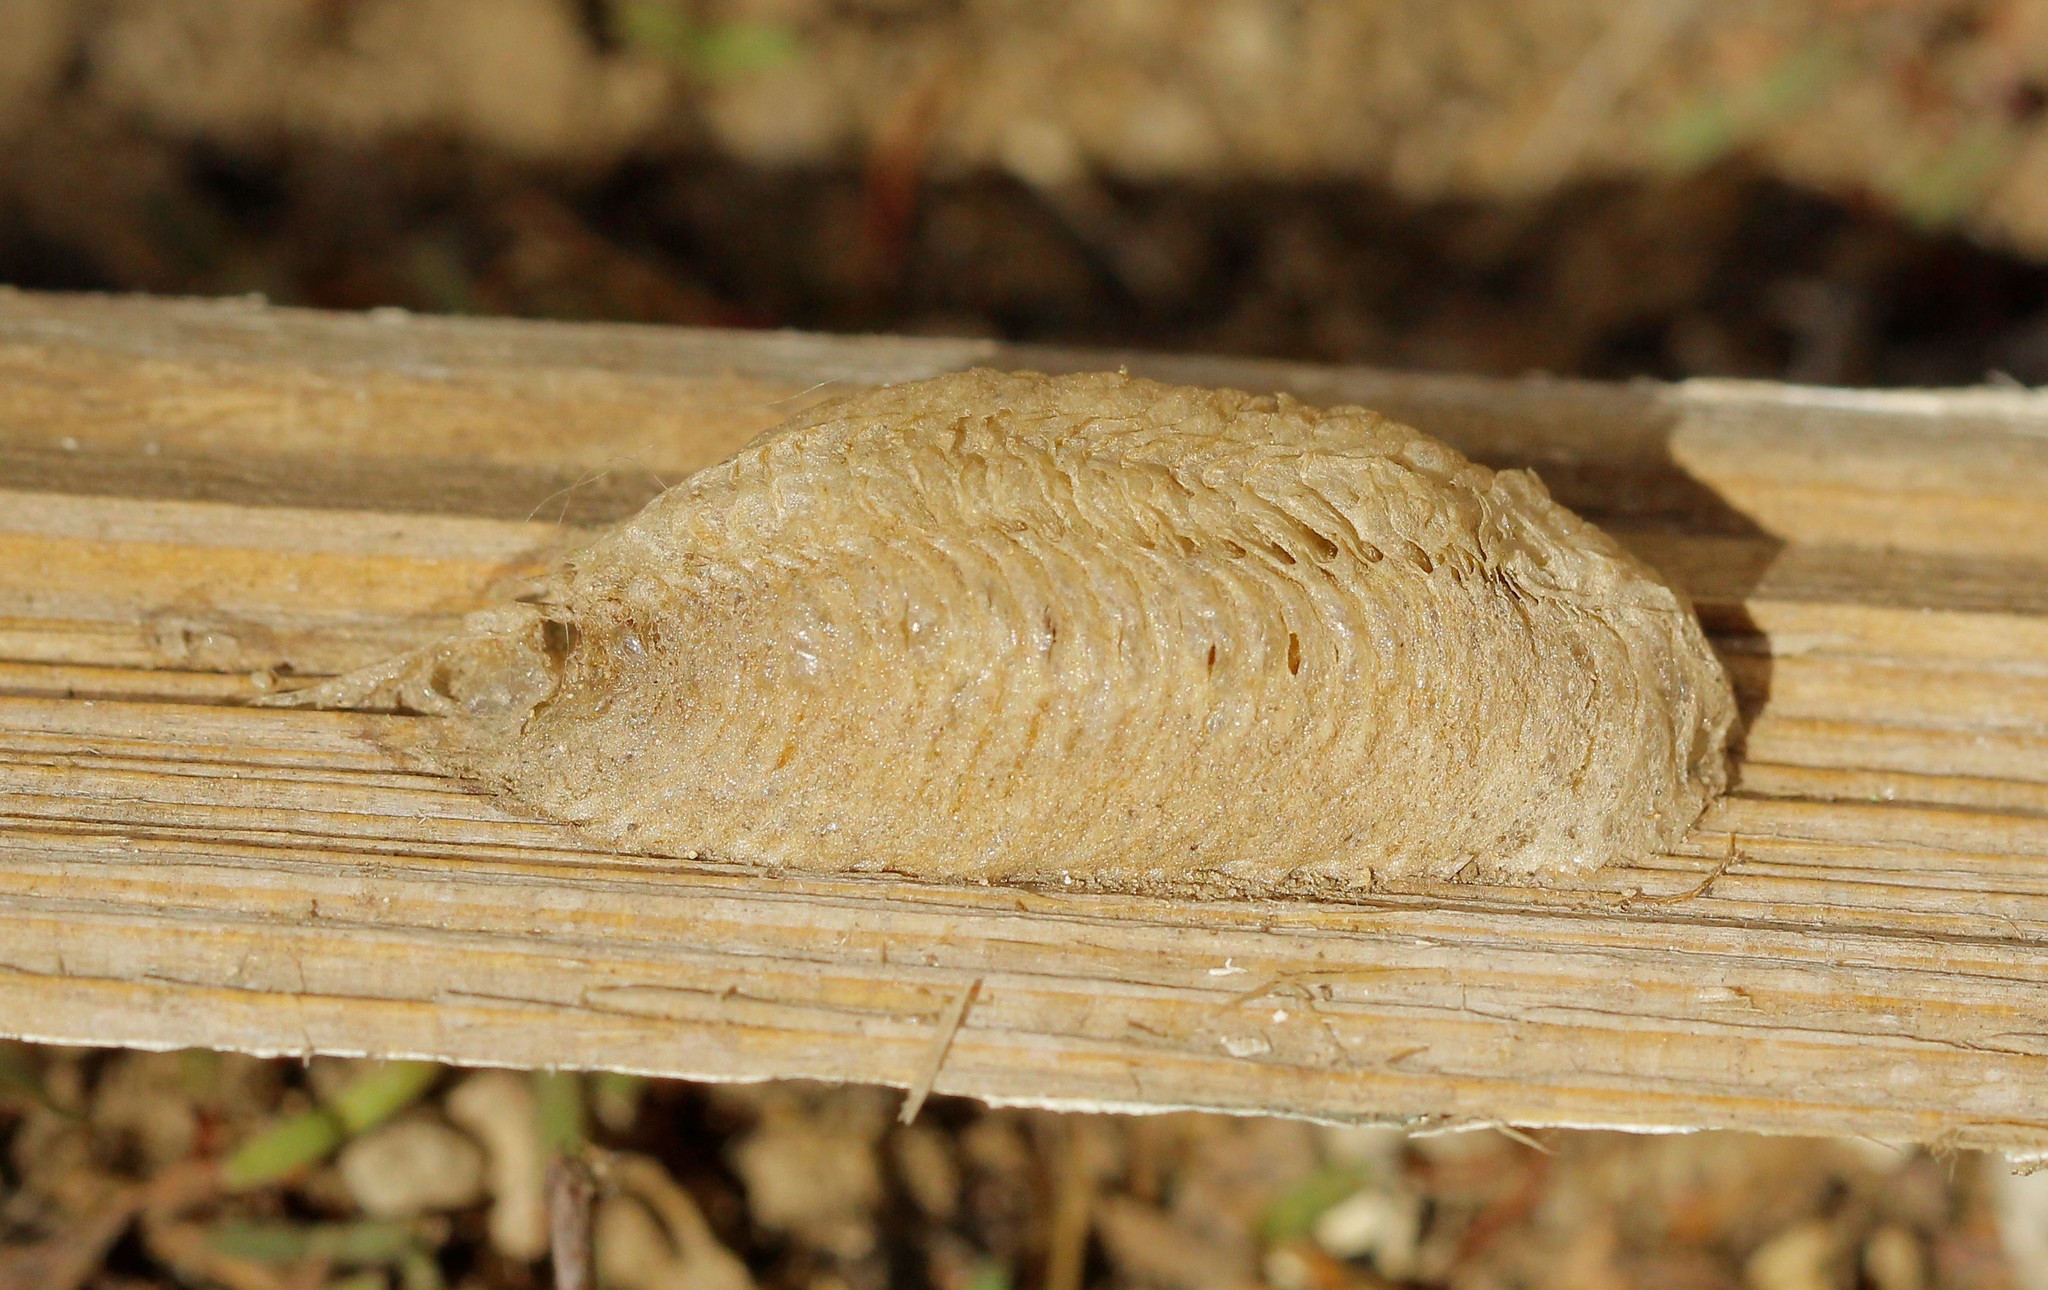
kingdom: Animalia
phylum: Arthropoda
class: Insecta
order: Mantodea
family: Mantidae
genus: Mantis
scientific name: Mantis religiosa
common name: Praying mantis
